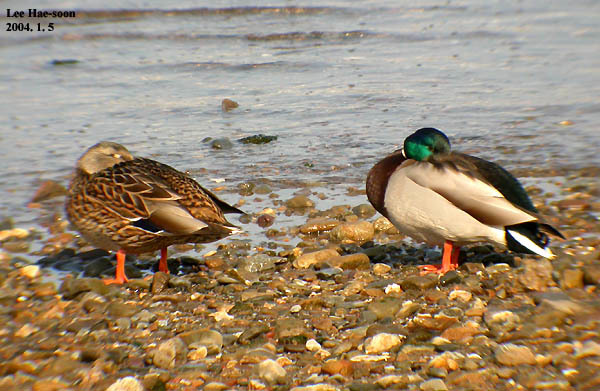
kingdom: Animalia
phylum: Chordata
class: Aves
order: Anseriformes
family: Anatidae
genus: Anas
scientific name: Anas platyrhynchos
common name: Mallard
